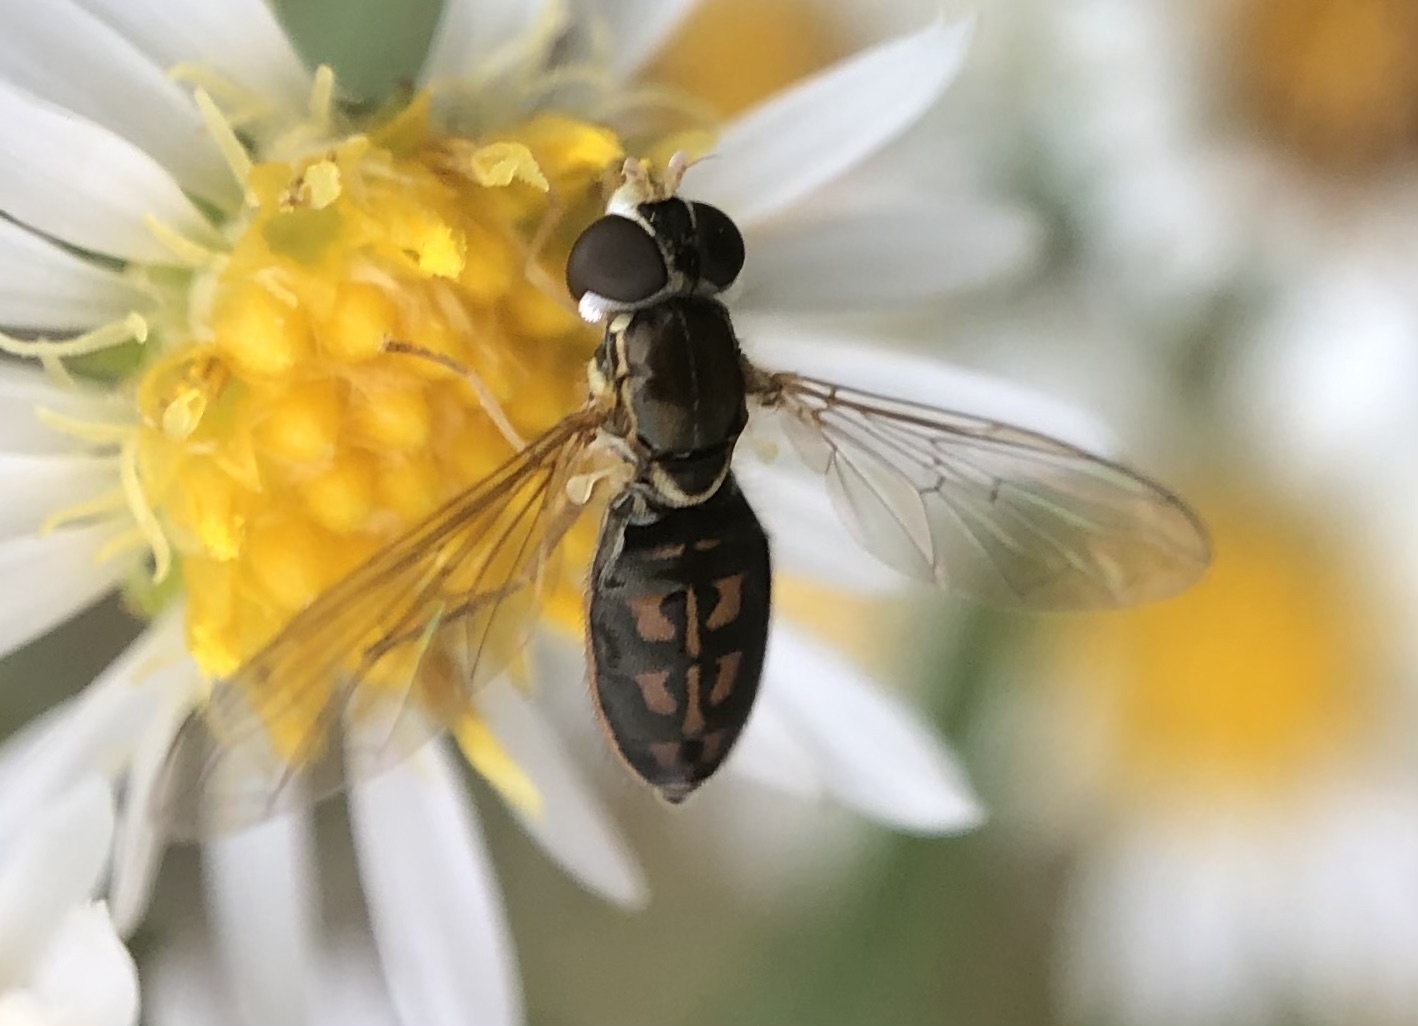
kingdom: Animalia
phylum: Arthropoda
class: Insecta
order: Diptera
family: Syrphidae
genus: Toxomerus
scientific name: Toxomerus marginatus
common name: Syrphid fly
